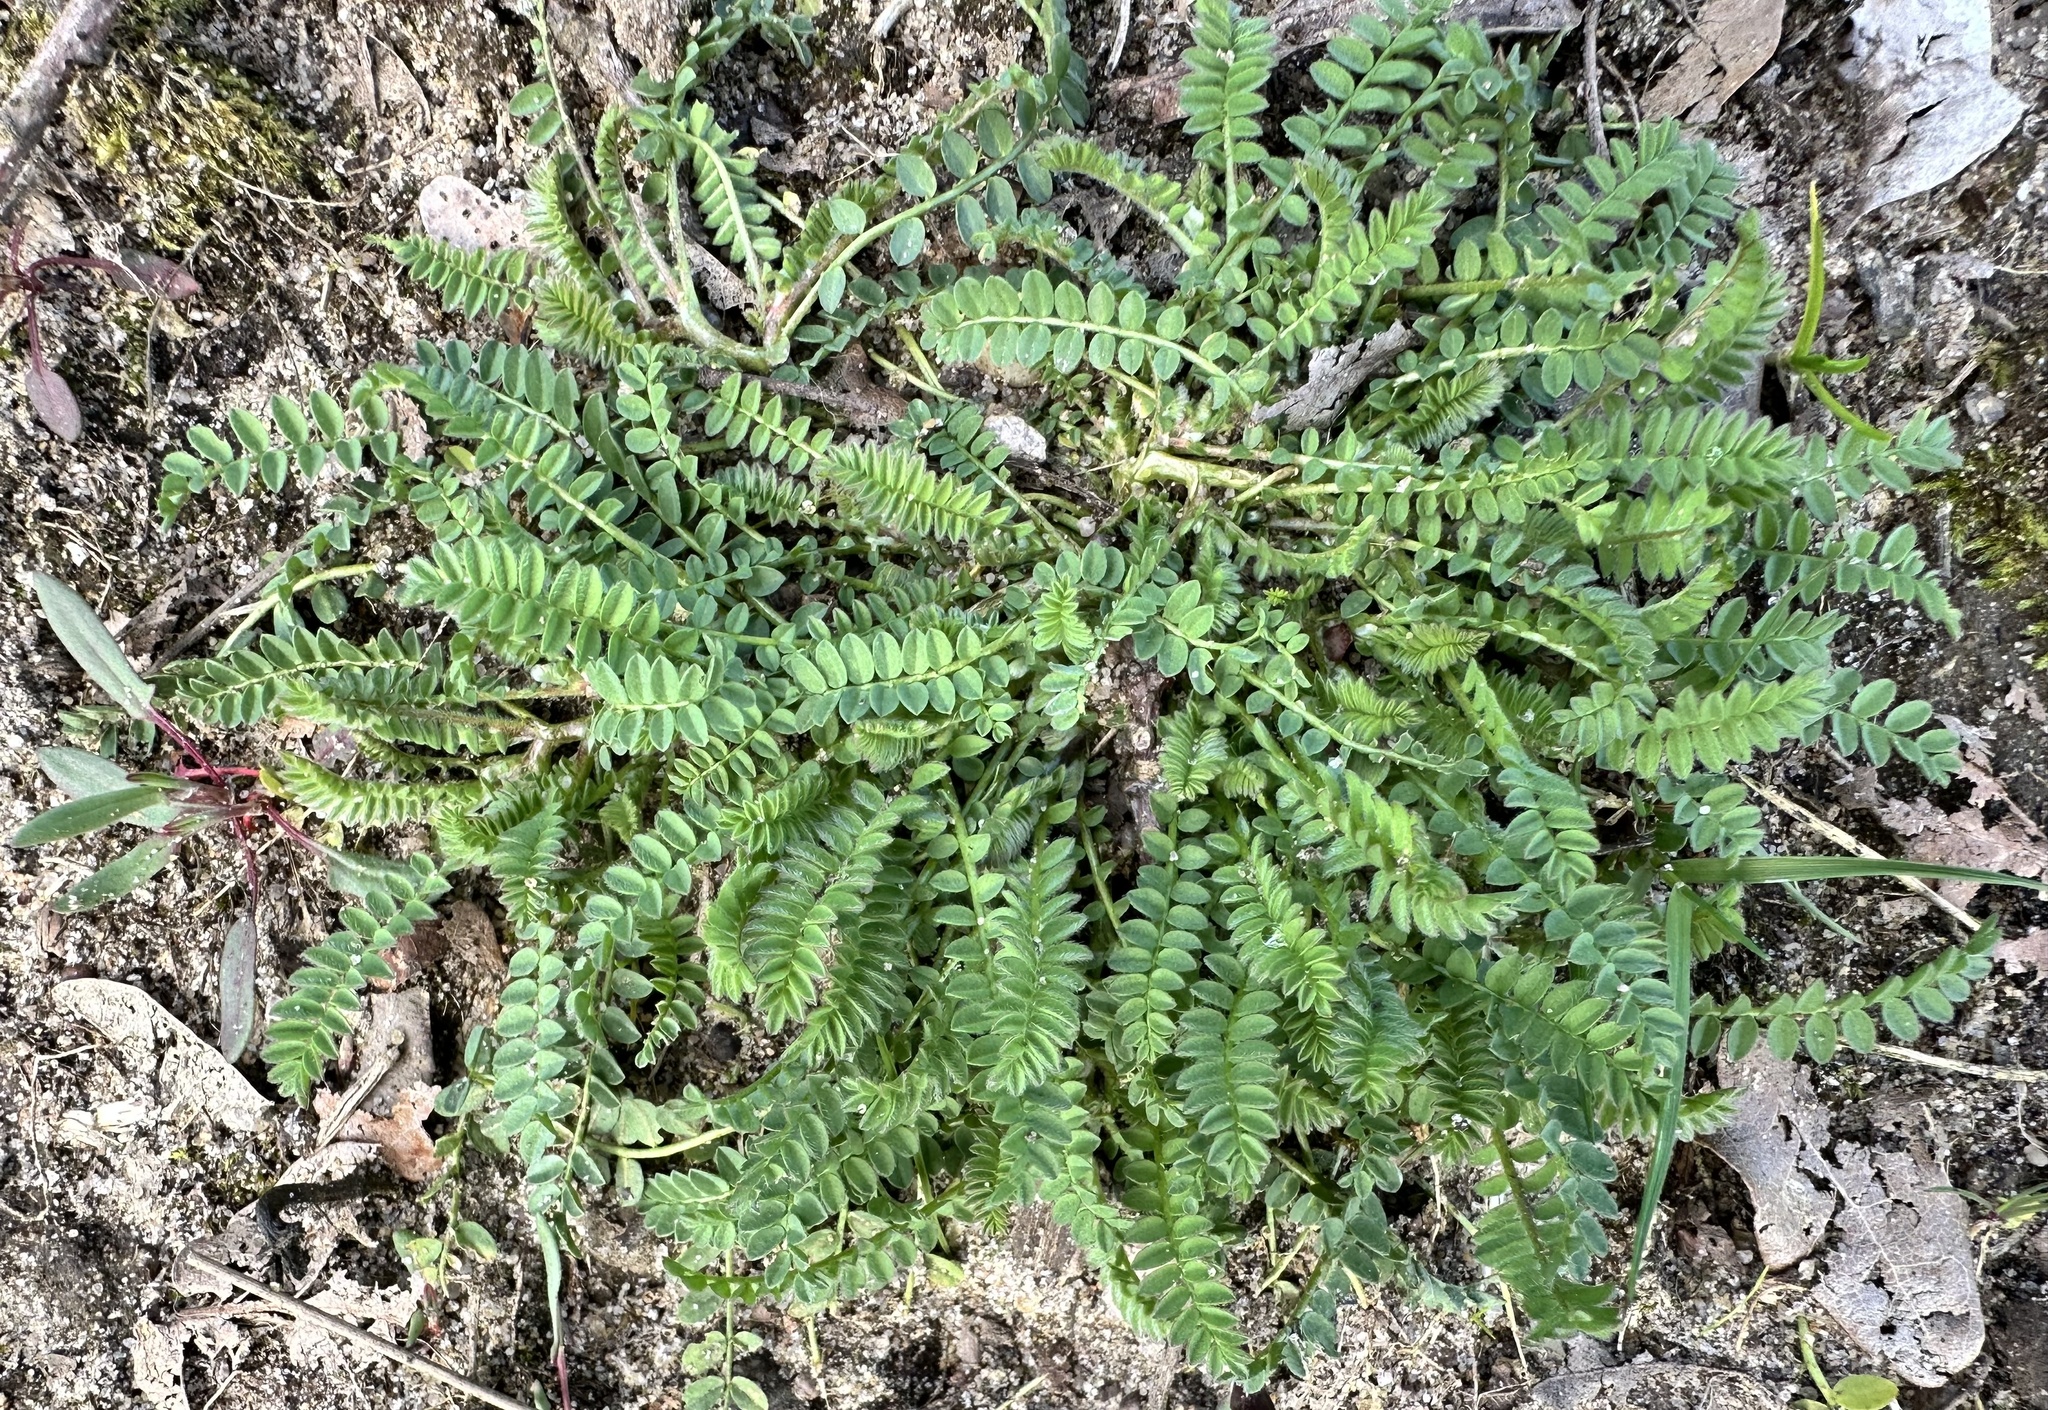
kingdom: Plantae
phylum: Tracheophyta
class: Magnoliopsida
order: Fabales
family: Fabaceae
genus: Ornithopus
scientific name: Ornithopus perpusillus
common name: Bird's-foot
